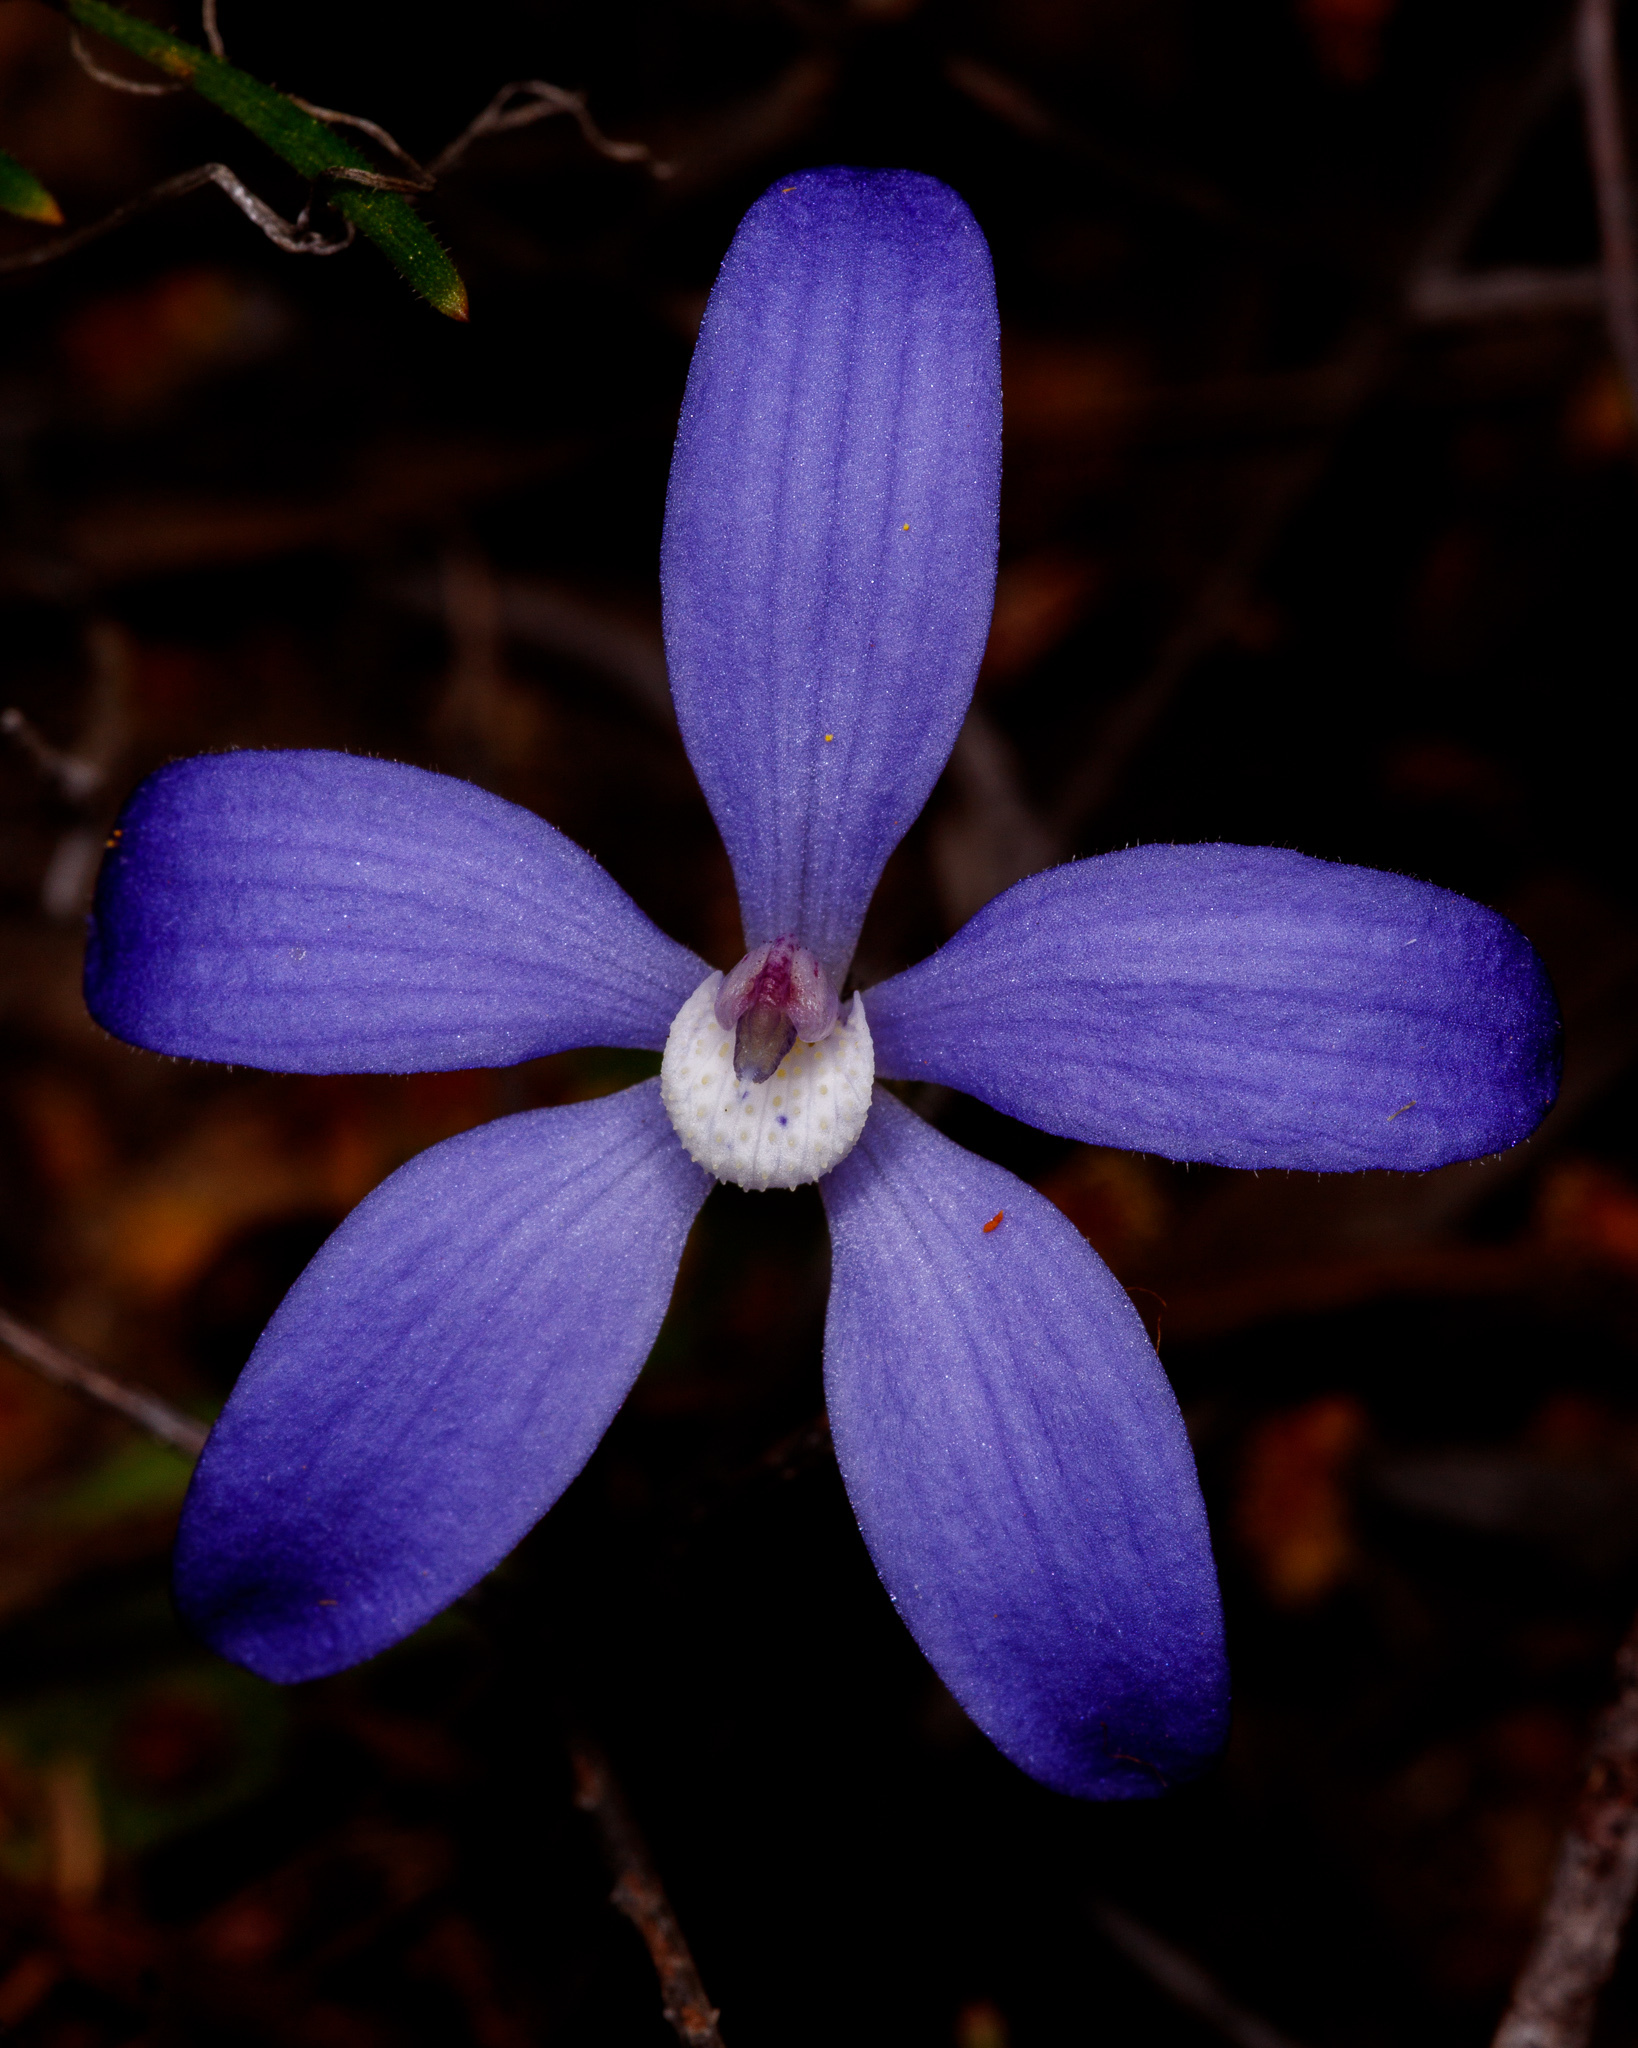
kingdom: Plantae
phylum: Tracheophyta
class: Liliopsida
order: Asparagales
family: Orchidaceae
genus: Caladenia
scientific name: Caladenia gemmata
